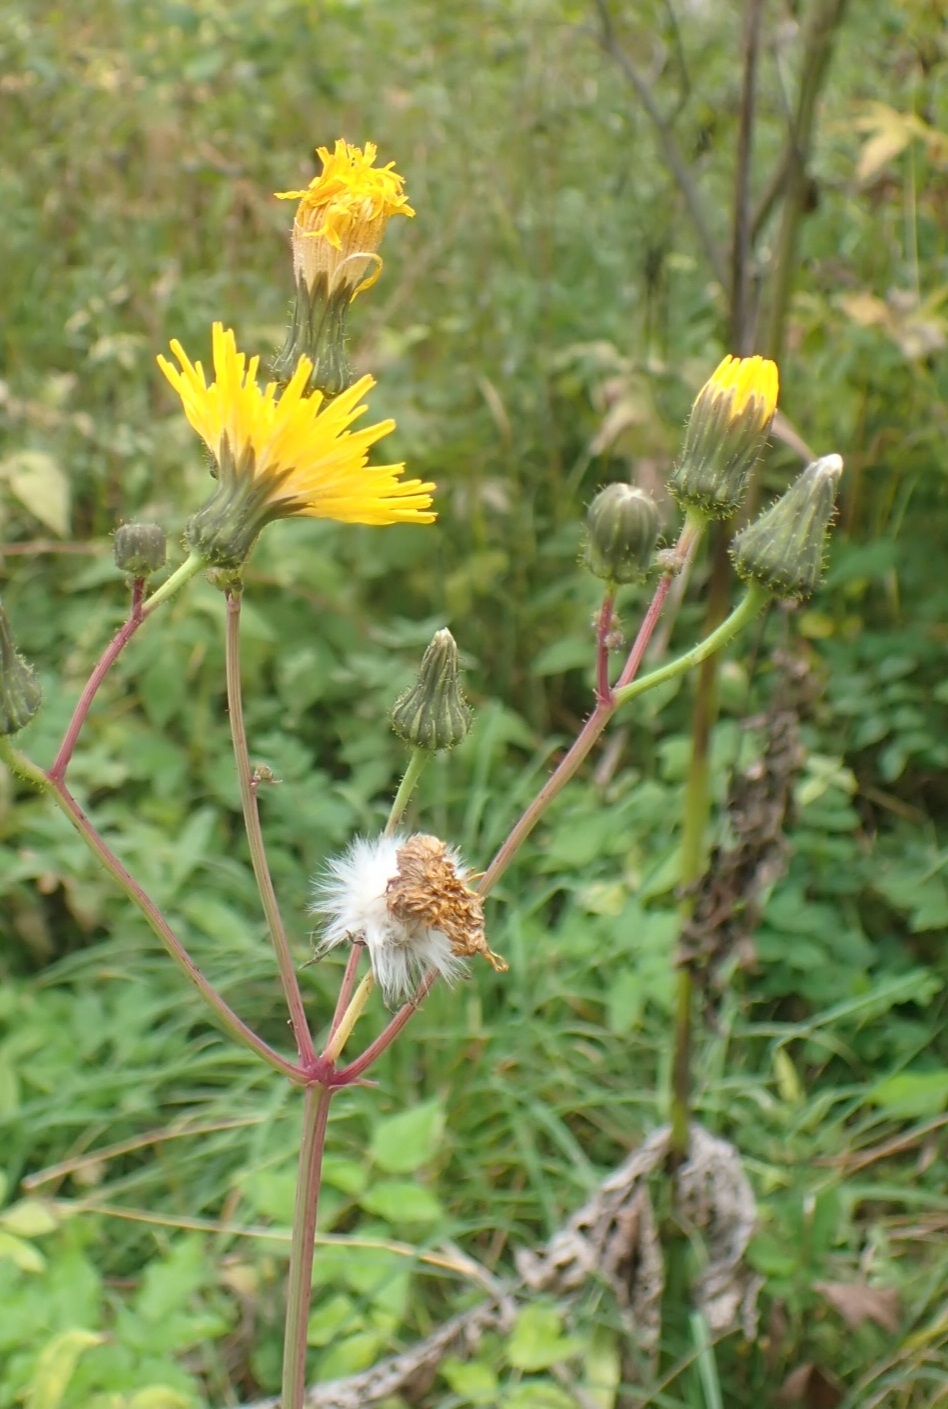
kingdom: Plantae
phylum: Tracheophyta
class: Magnoliopsida
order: Asterales
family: Asteraceae
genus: Sonchus
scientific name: Sonchus arvensis
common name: Perennial sow-thistle
